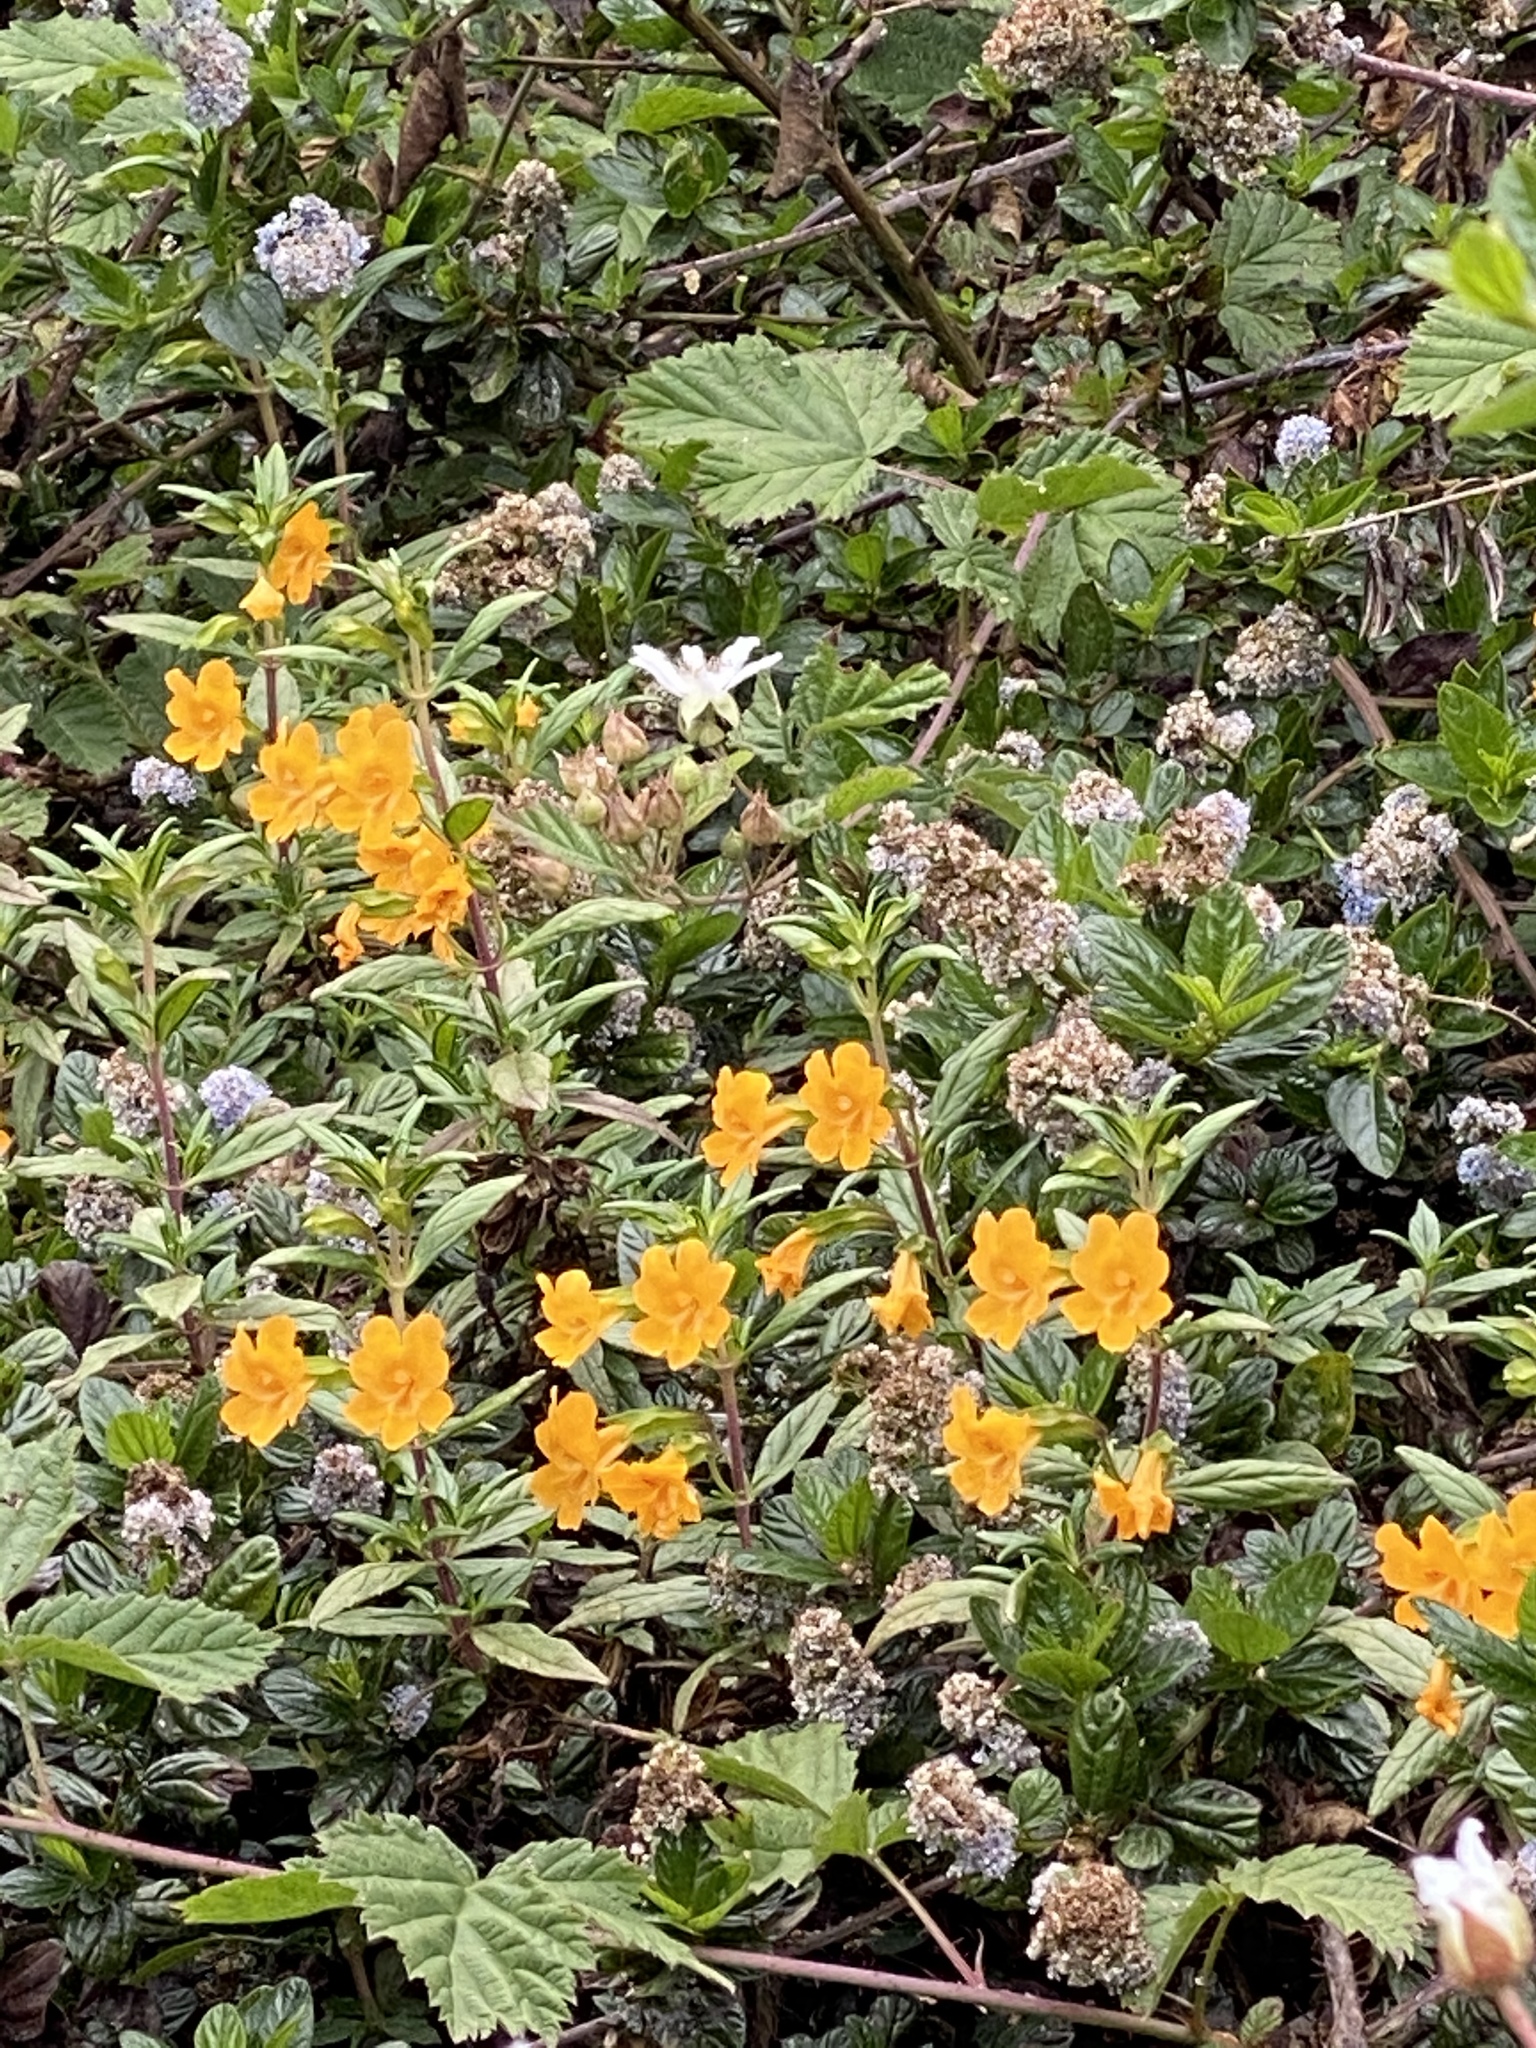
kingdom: Plantae
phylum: Tracheophyta
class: Magnoliopsida
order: Lamiales
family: Phrymaceae
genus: Diplacus
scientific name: Diplacus aurantiacus
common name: Bush monkey-flower
